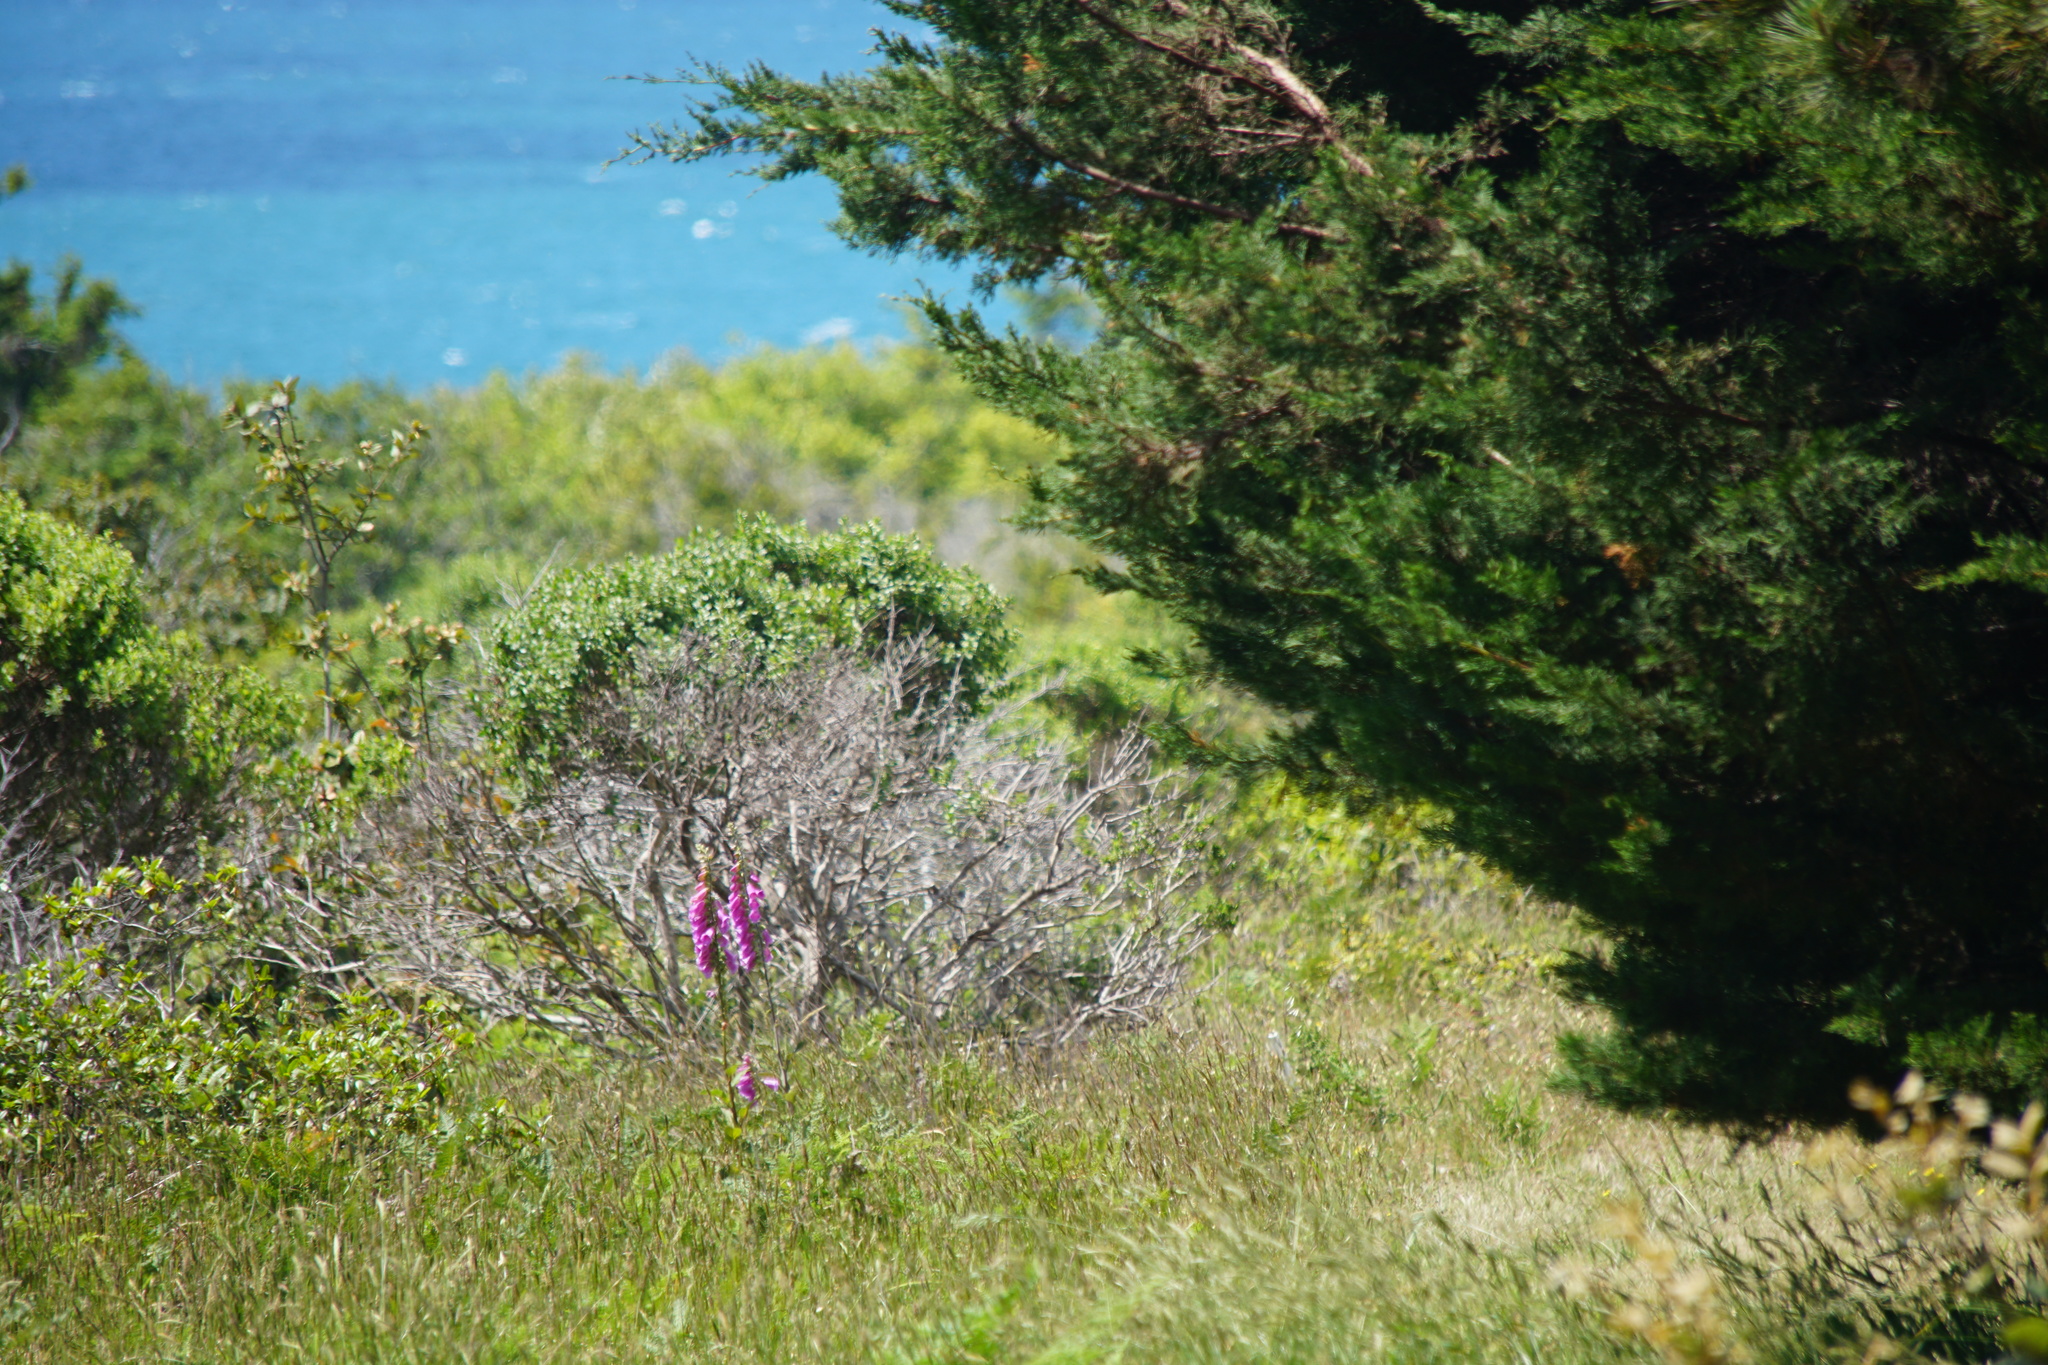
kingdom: Plantae
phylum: Tracheophyta
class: Magnoliopsida
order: Lamiales
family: Plantaginaceae
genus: Digitalis
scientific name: Digitalis purpurea
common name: Foxglove
